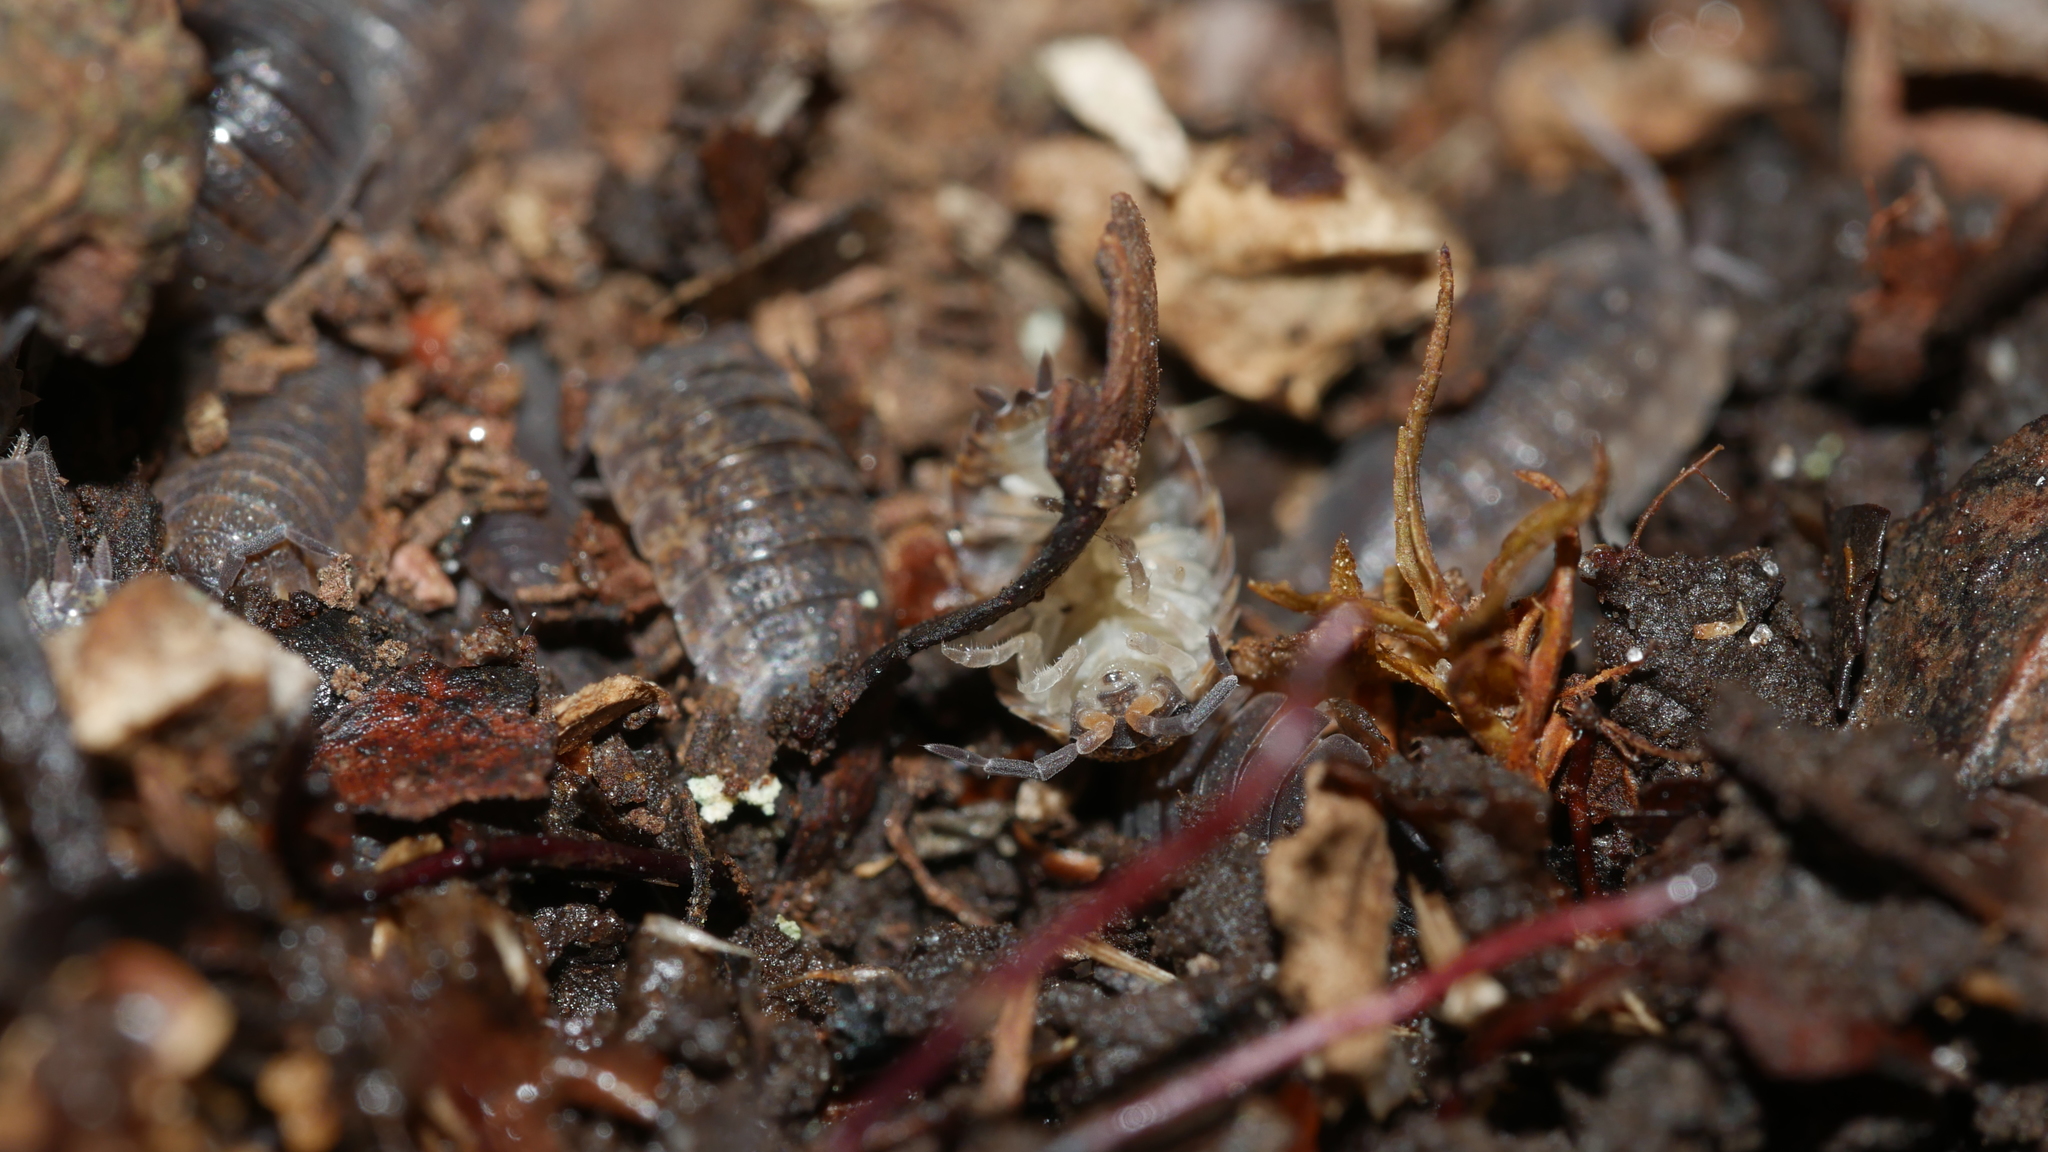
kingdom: Animalia
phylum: Arthropoda
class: Malacostraca
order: Isopoda
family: Porcellionidae
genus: Porcellio
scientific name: Porcellio scaber
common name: Common rough woodlouse
